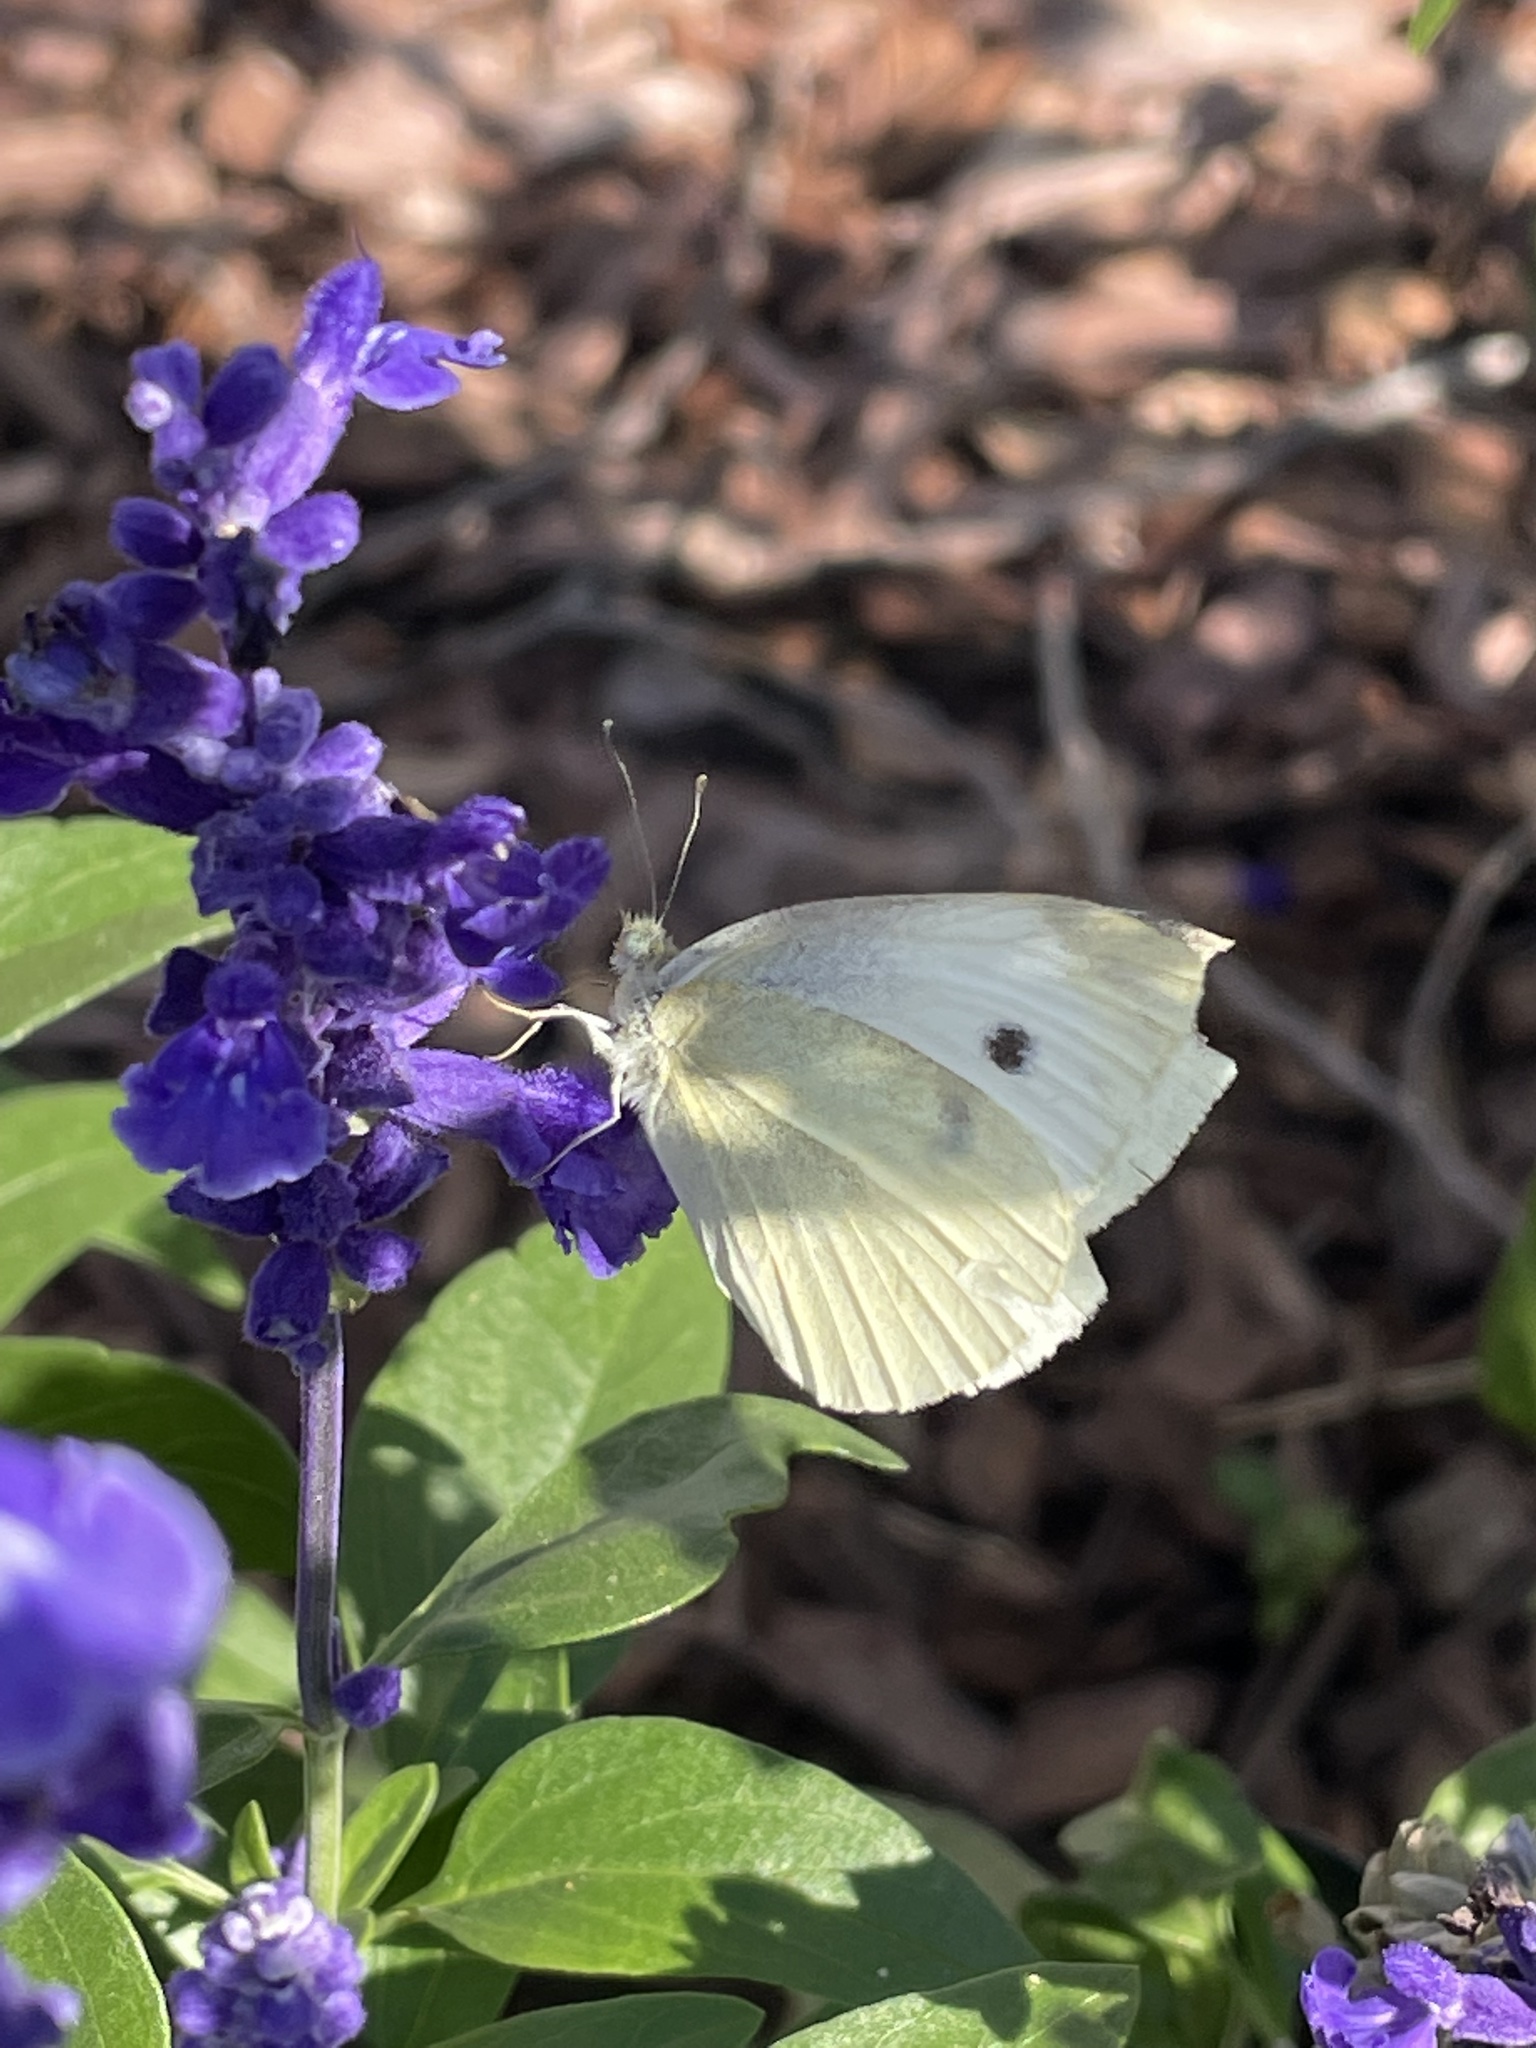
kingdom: Animalia
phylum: Arthropoda
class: Insecta
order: Lepidoptera
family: Pieridae
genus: Pieris
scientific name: Pieris rapae
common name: Small white
